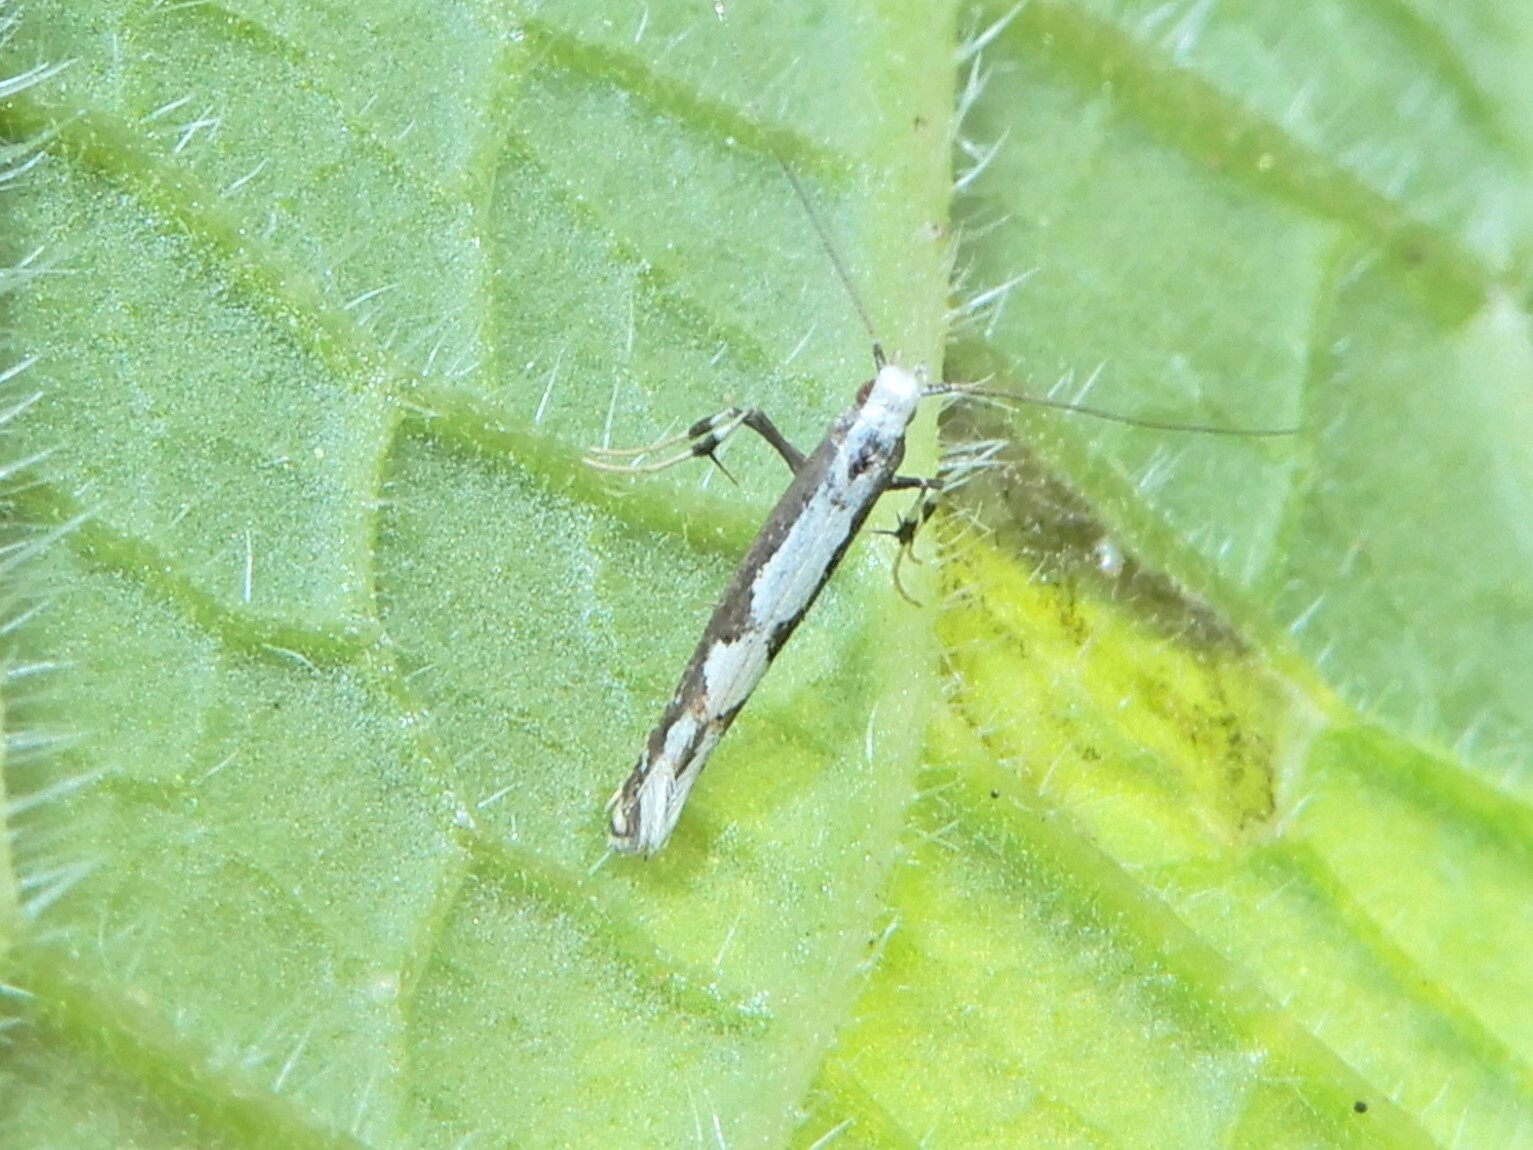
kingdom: Animalia
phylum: Arthropoda
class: Insecta
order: Lepidoptera
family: Gracillariidae
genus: Dialectica
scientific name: Dialectica scalariella
